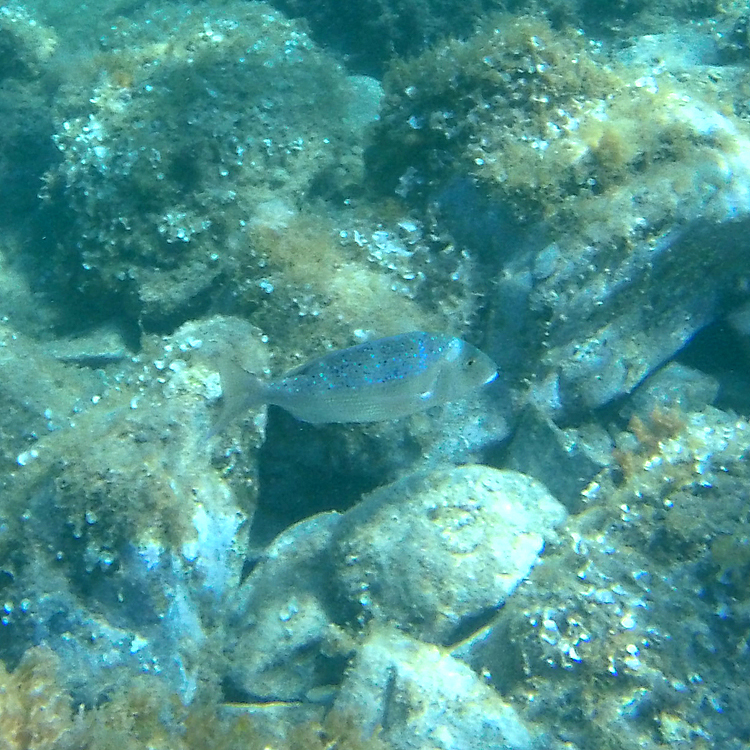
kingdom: Animalia
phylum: Chordata
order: Perciformes
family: Sparidae
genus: Dentex
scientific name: Dentex dentex
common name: Dentex
